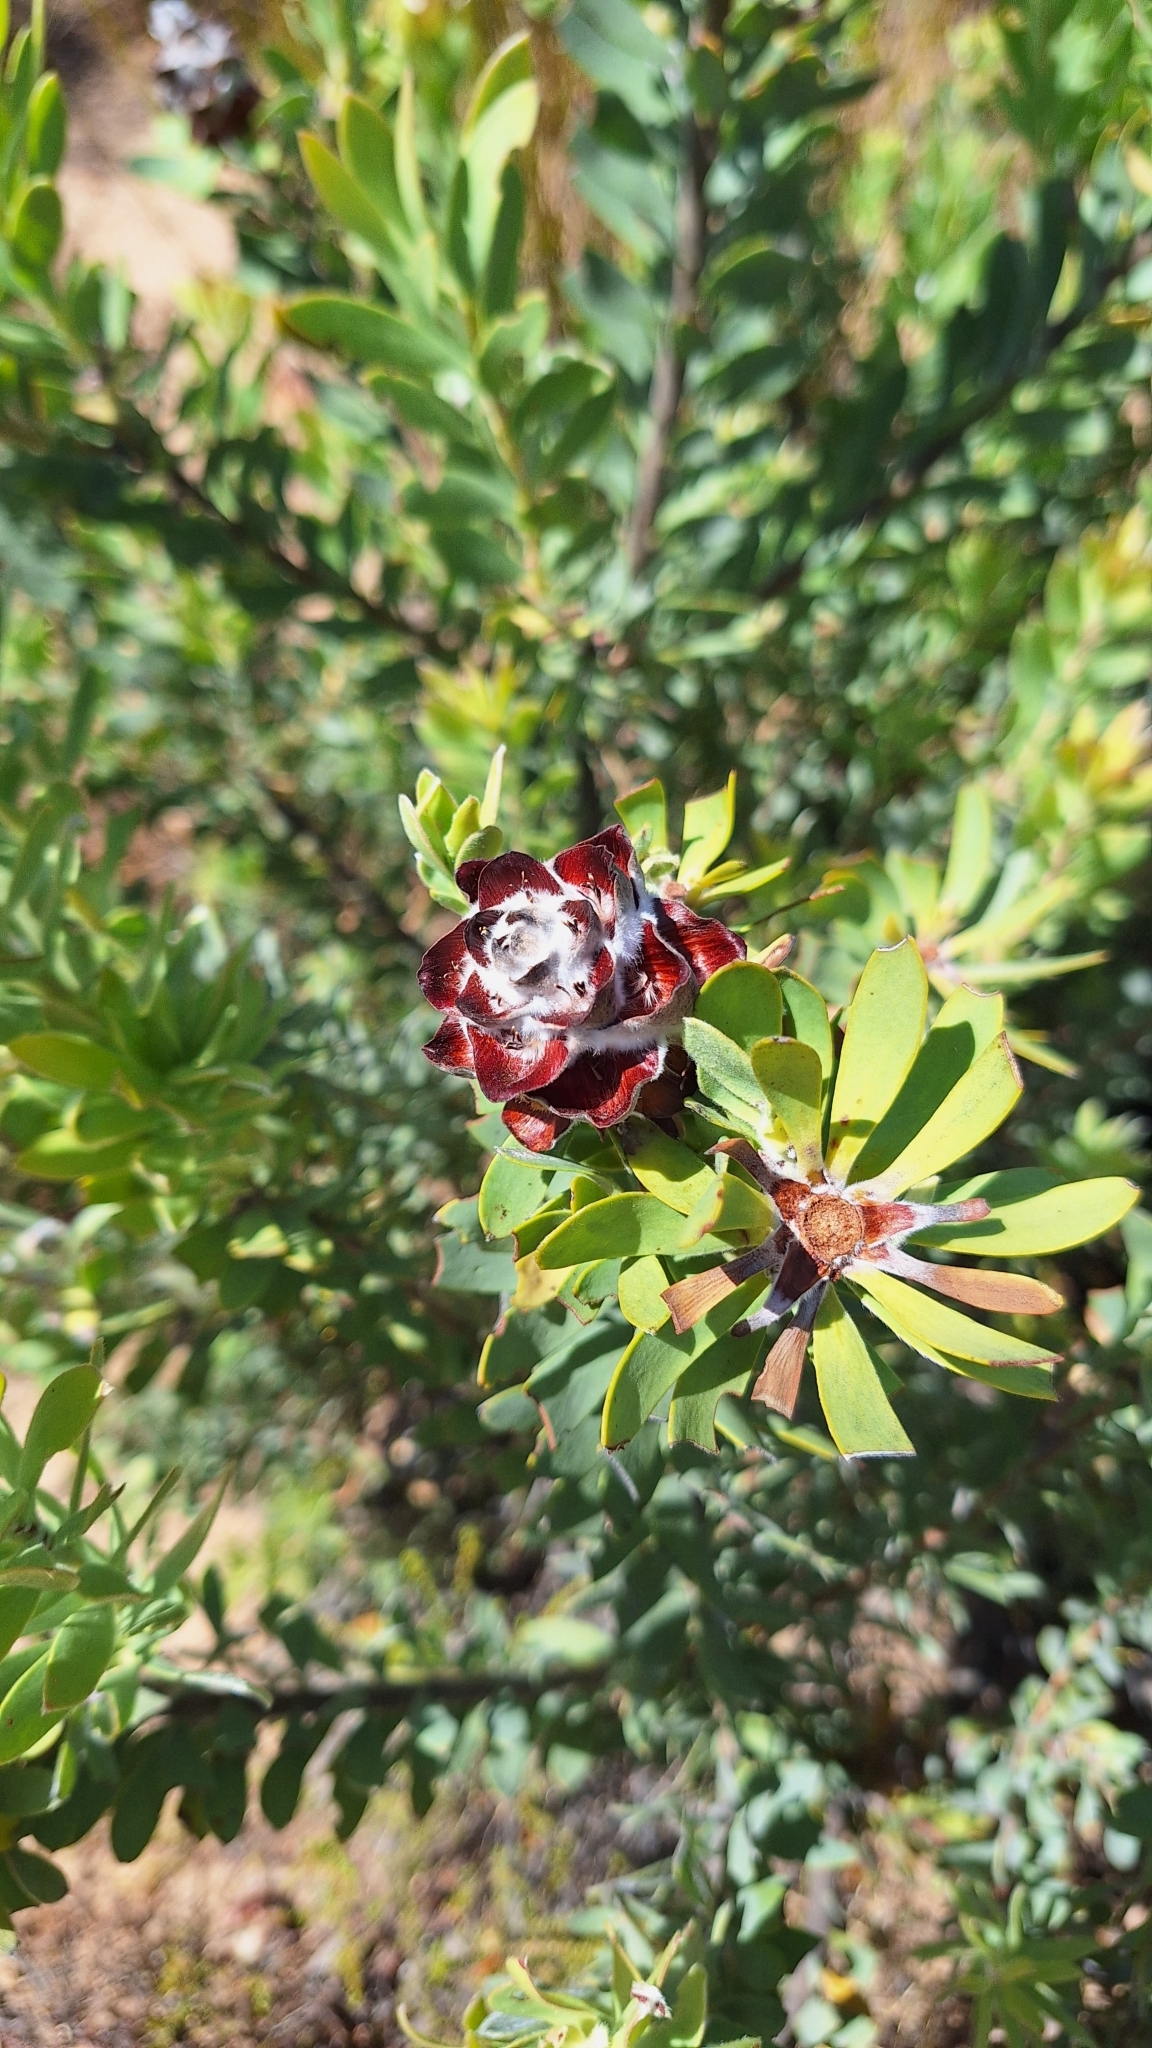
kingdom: Plantae
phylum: Tracheophyta
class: Magnoliopsida
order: Proteales
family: Proteaceae
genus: Leucadendron
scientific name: Leucadendron pubescens
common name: Grey conebush
